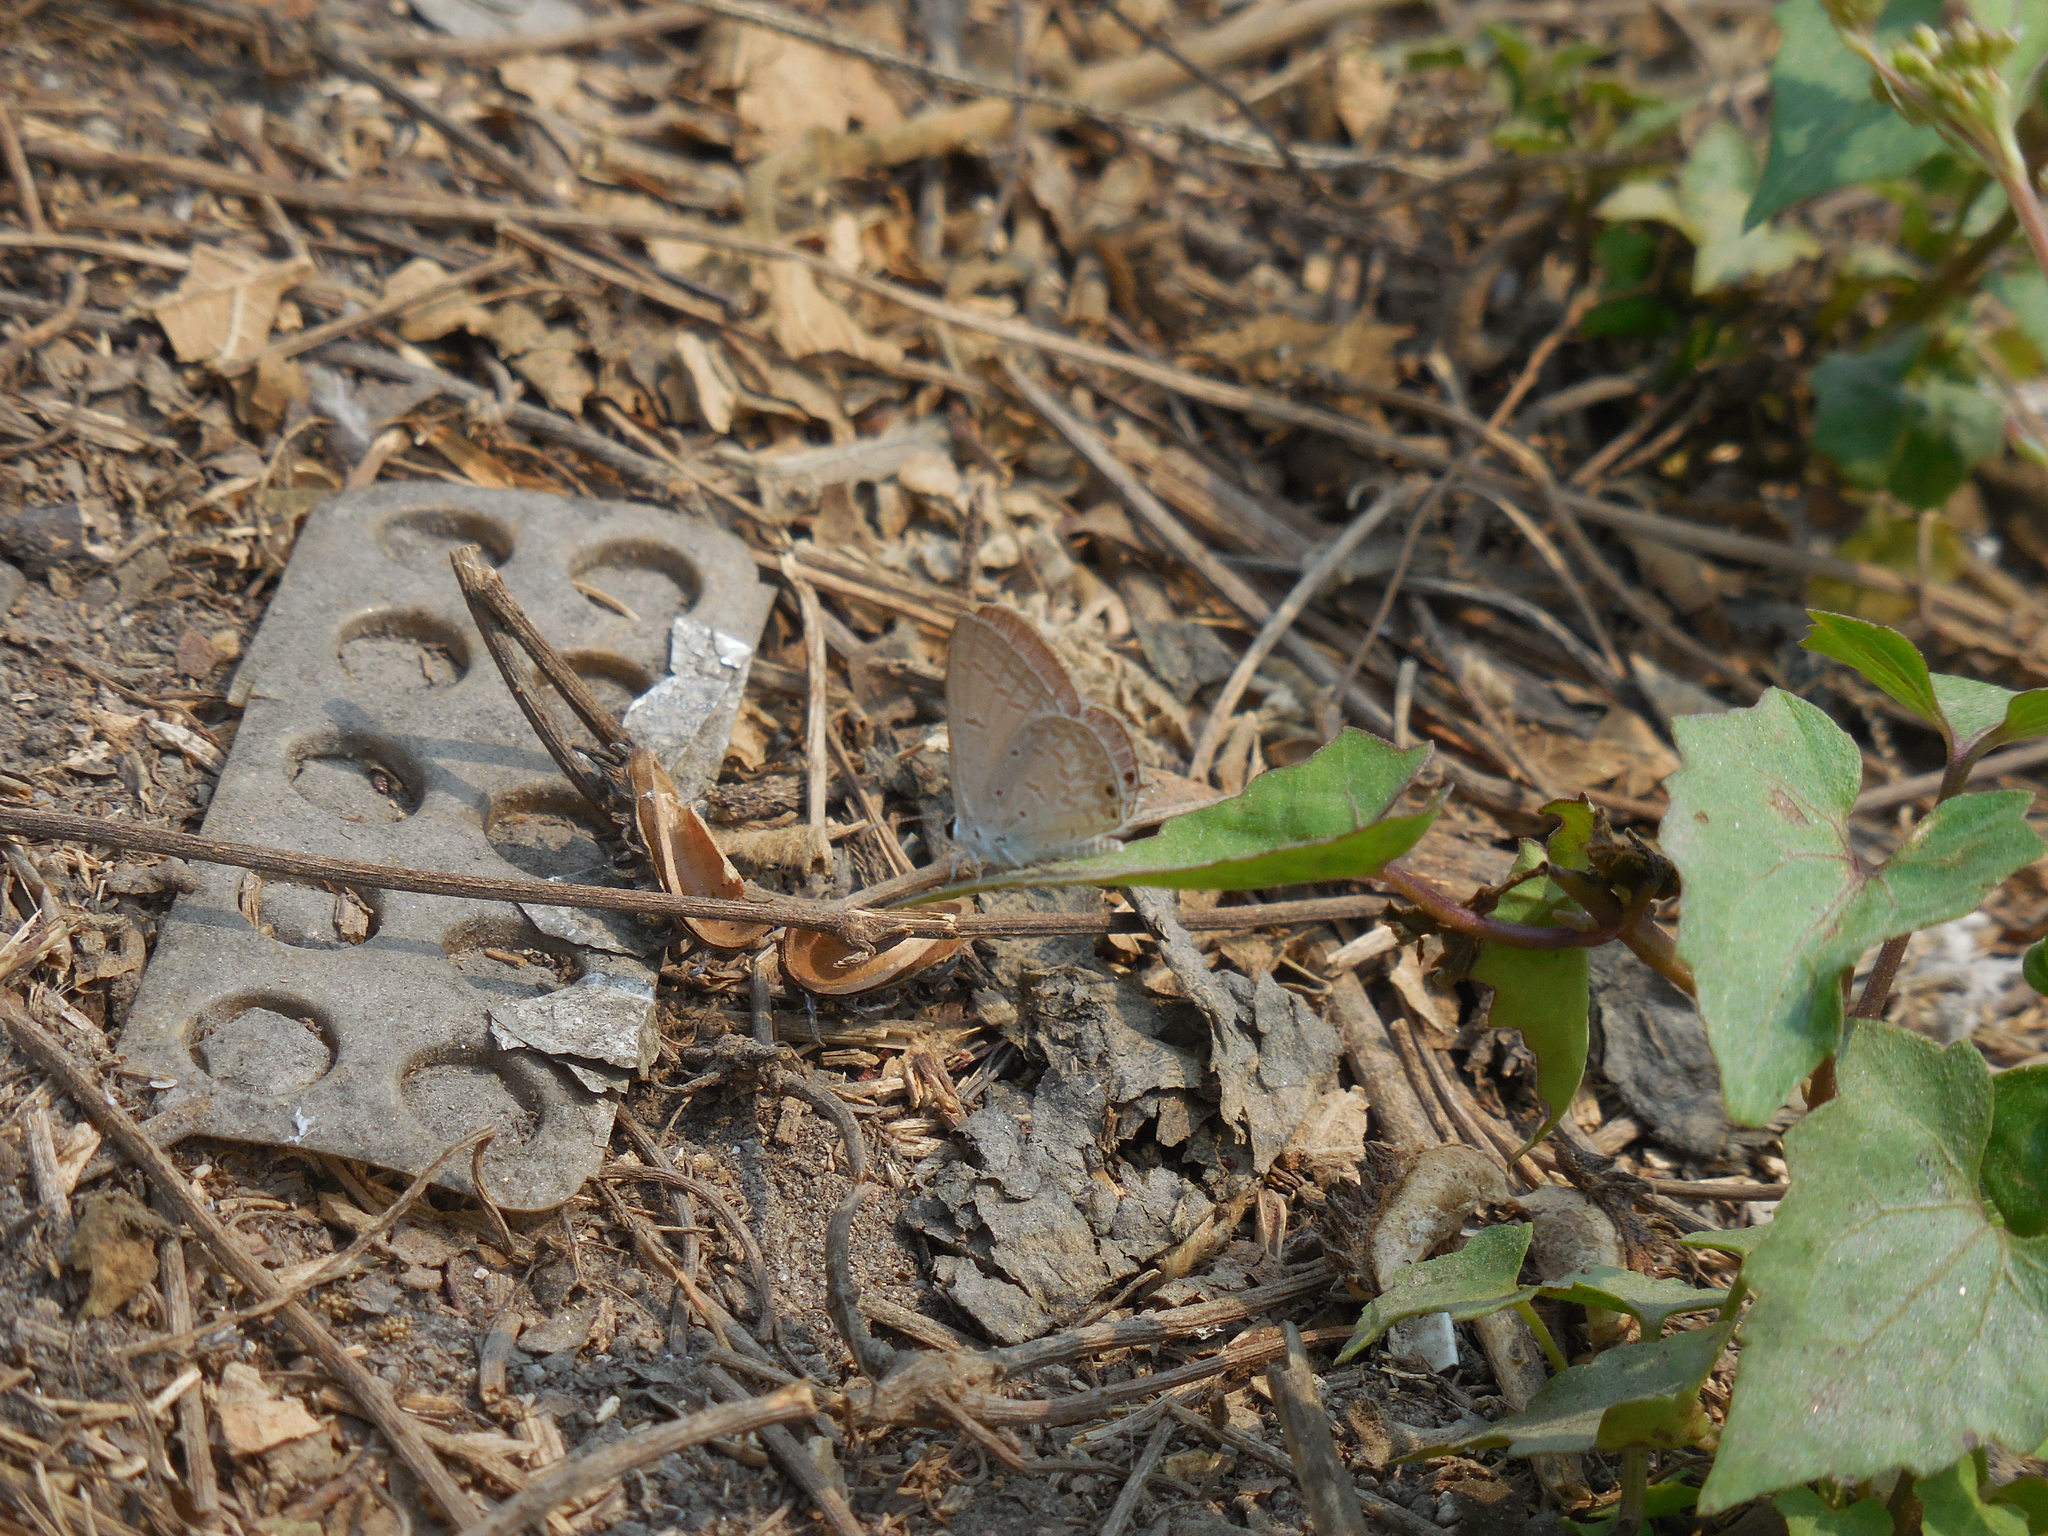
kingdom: Animalia
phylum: Arthropoda
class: Insecta
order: Lepidoptera
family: Lycaenidae
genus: Euchrysops
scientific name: Euchrysops cnejus
